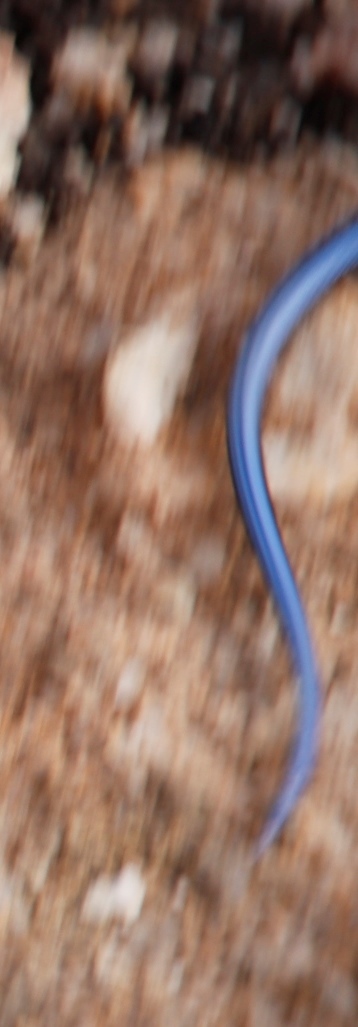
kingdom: Animalia
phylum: Chordata
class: Squamata
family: Gerrhosauridae
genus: Cordylosaurus
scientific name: Cordylosaurus subtessellatus
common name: Dwarf plated lizard
